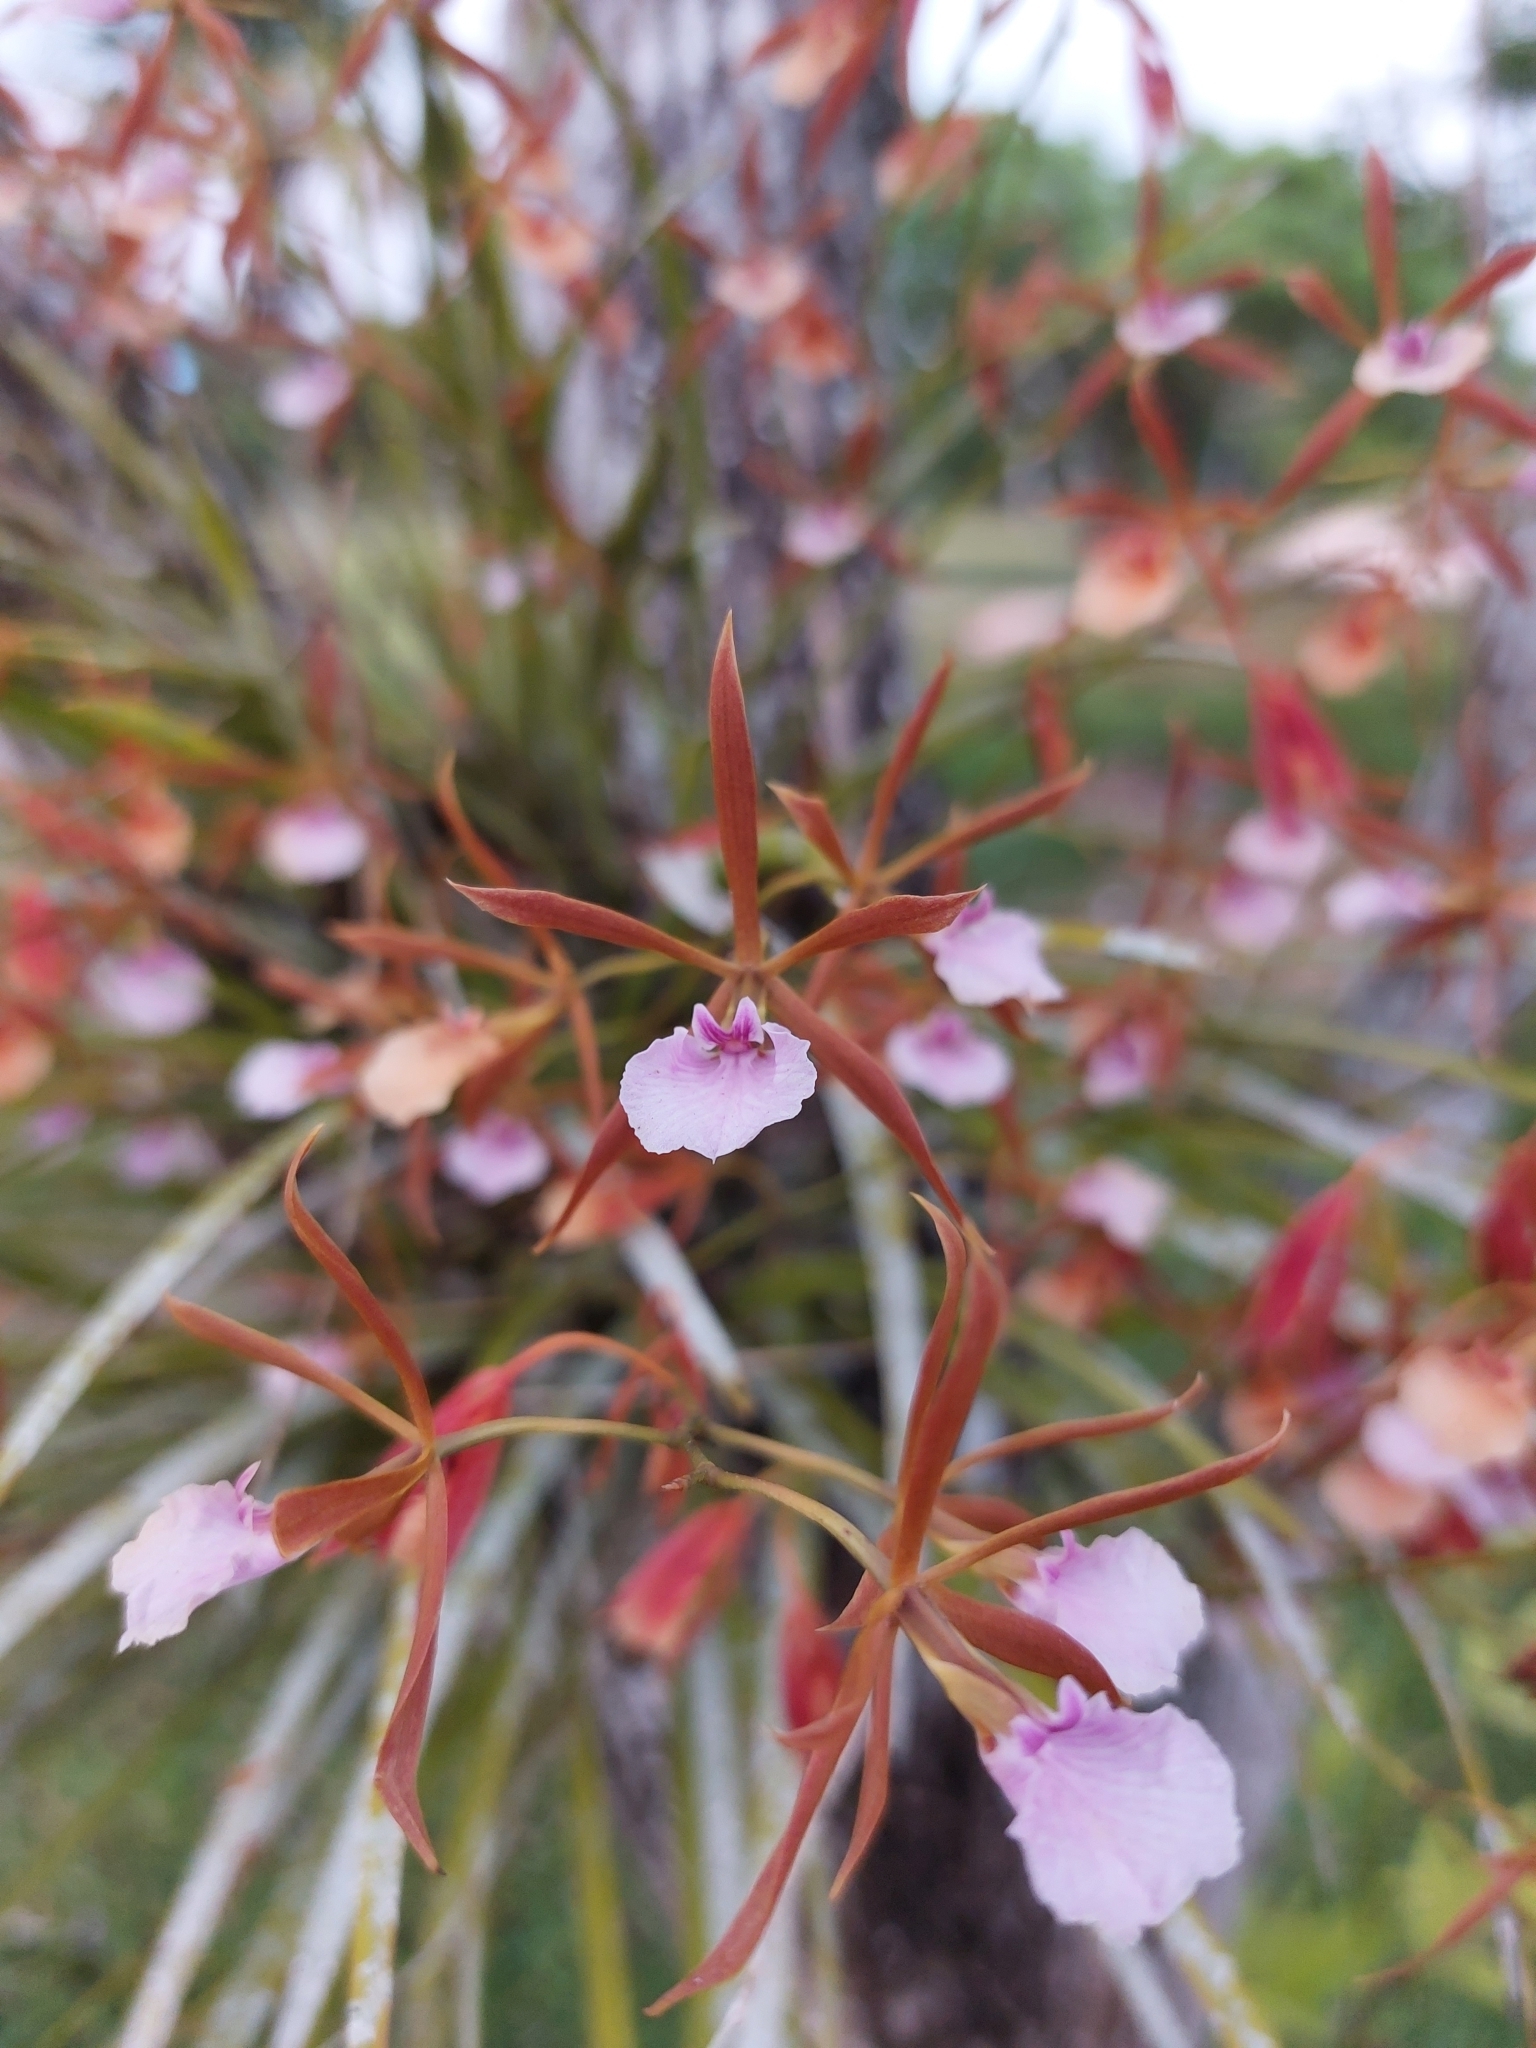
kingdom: Plantae
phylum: Tracheophyta
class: Liliopsida
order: Asparagales
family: Orchidaceae
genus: Encyclia
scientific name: Encyclia bractescens
